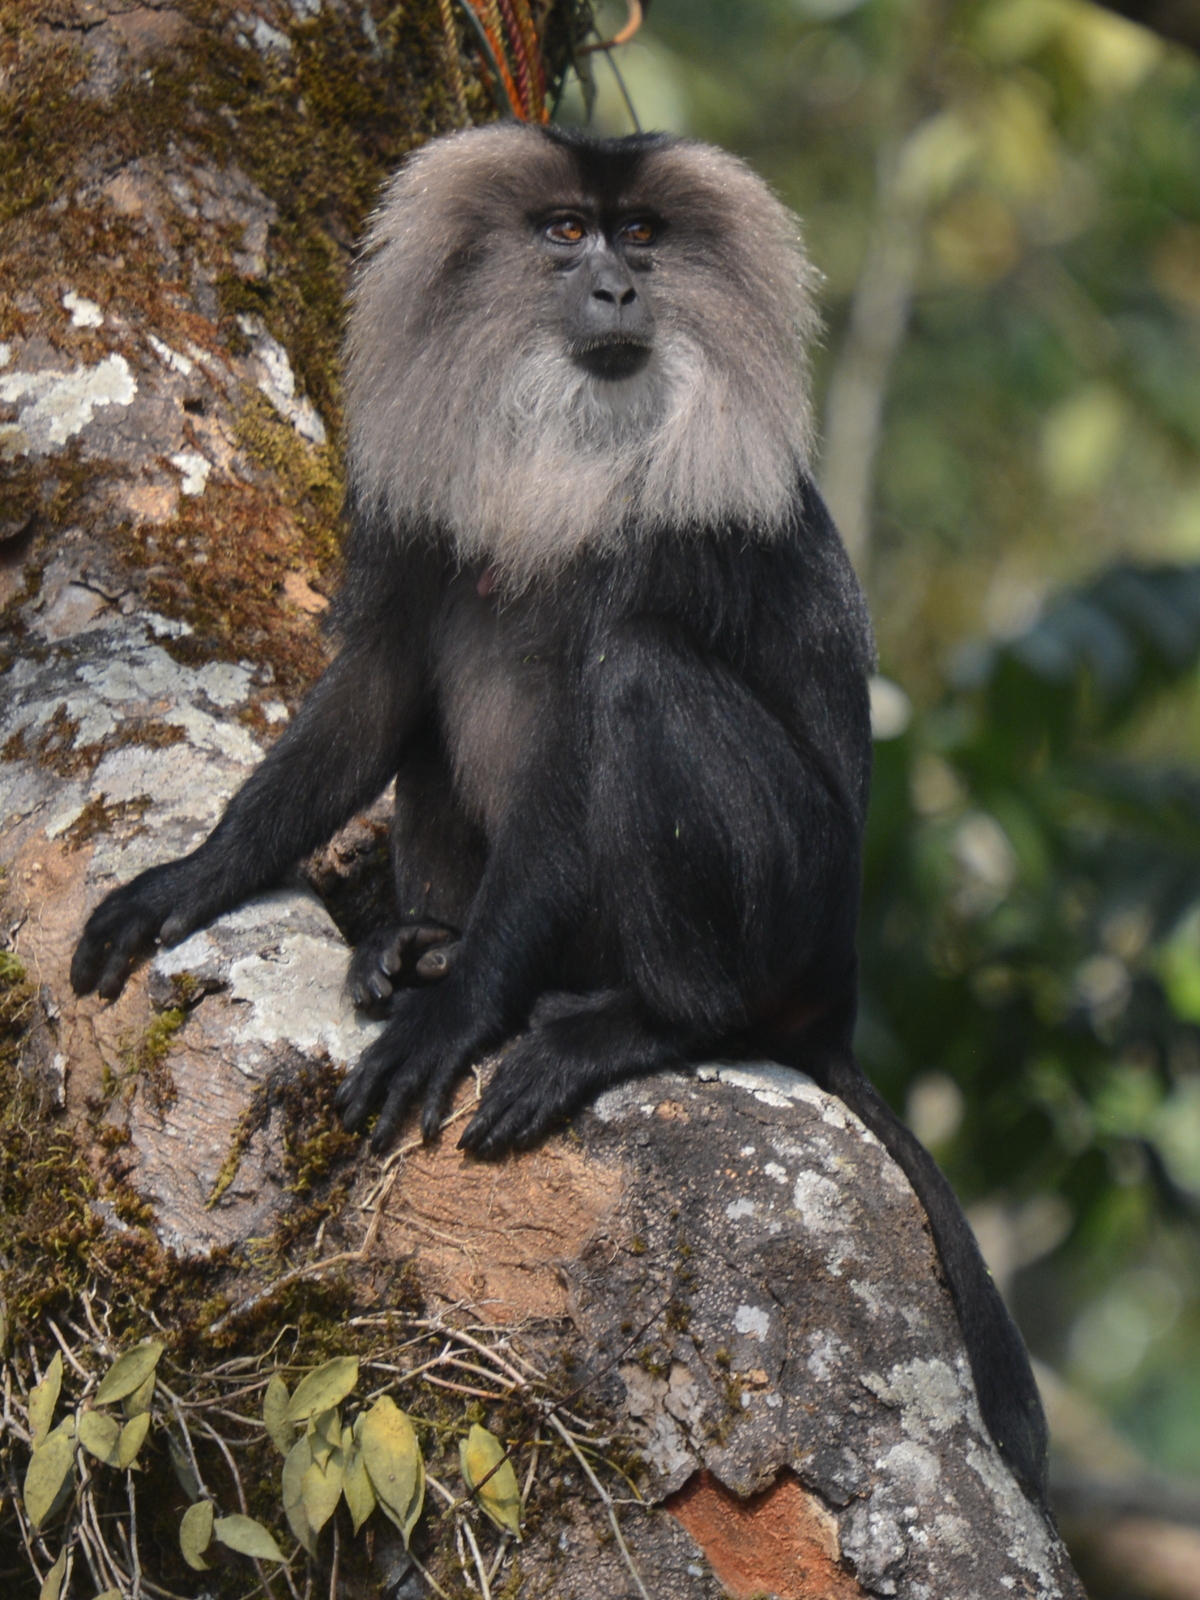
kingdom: Animalia
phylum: Chordata
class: Mammalia
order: Primates
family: Cercopithecidae
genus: Macaca
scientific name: Macaca silenus
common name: Lion-tailed macaque
